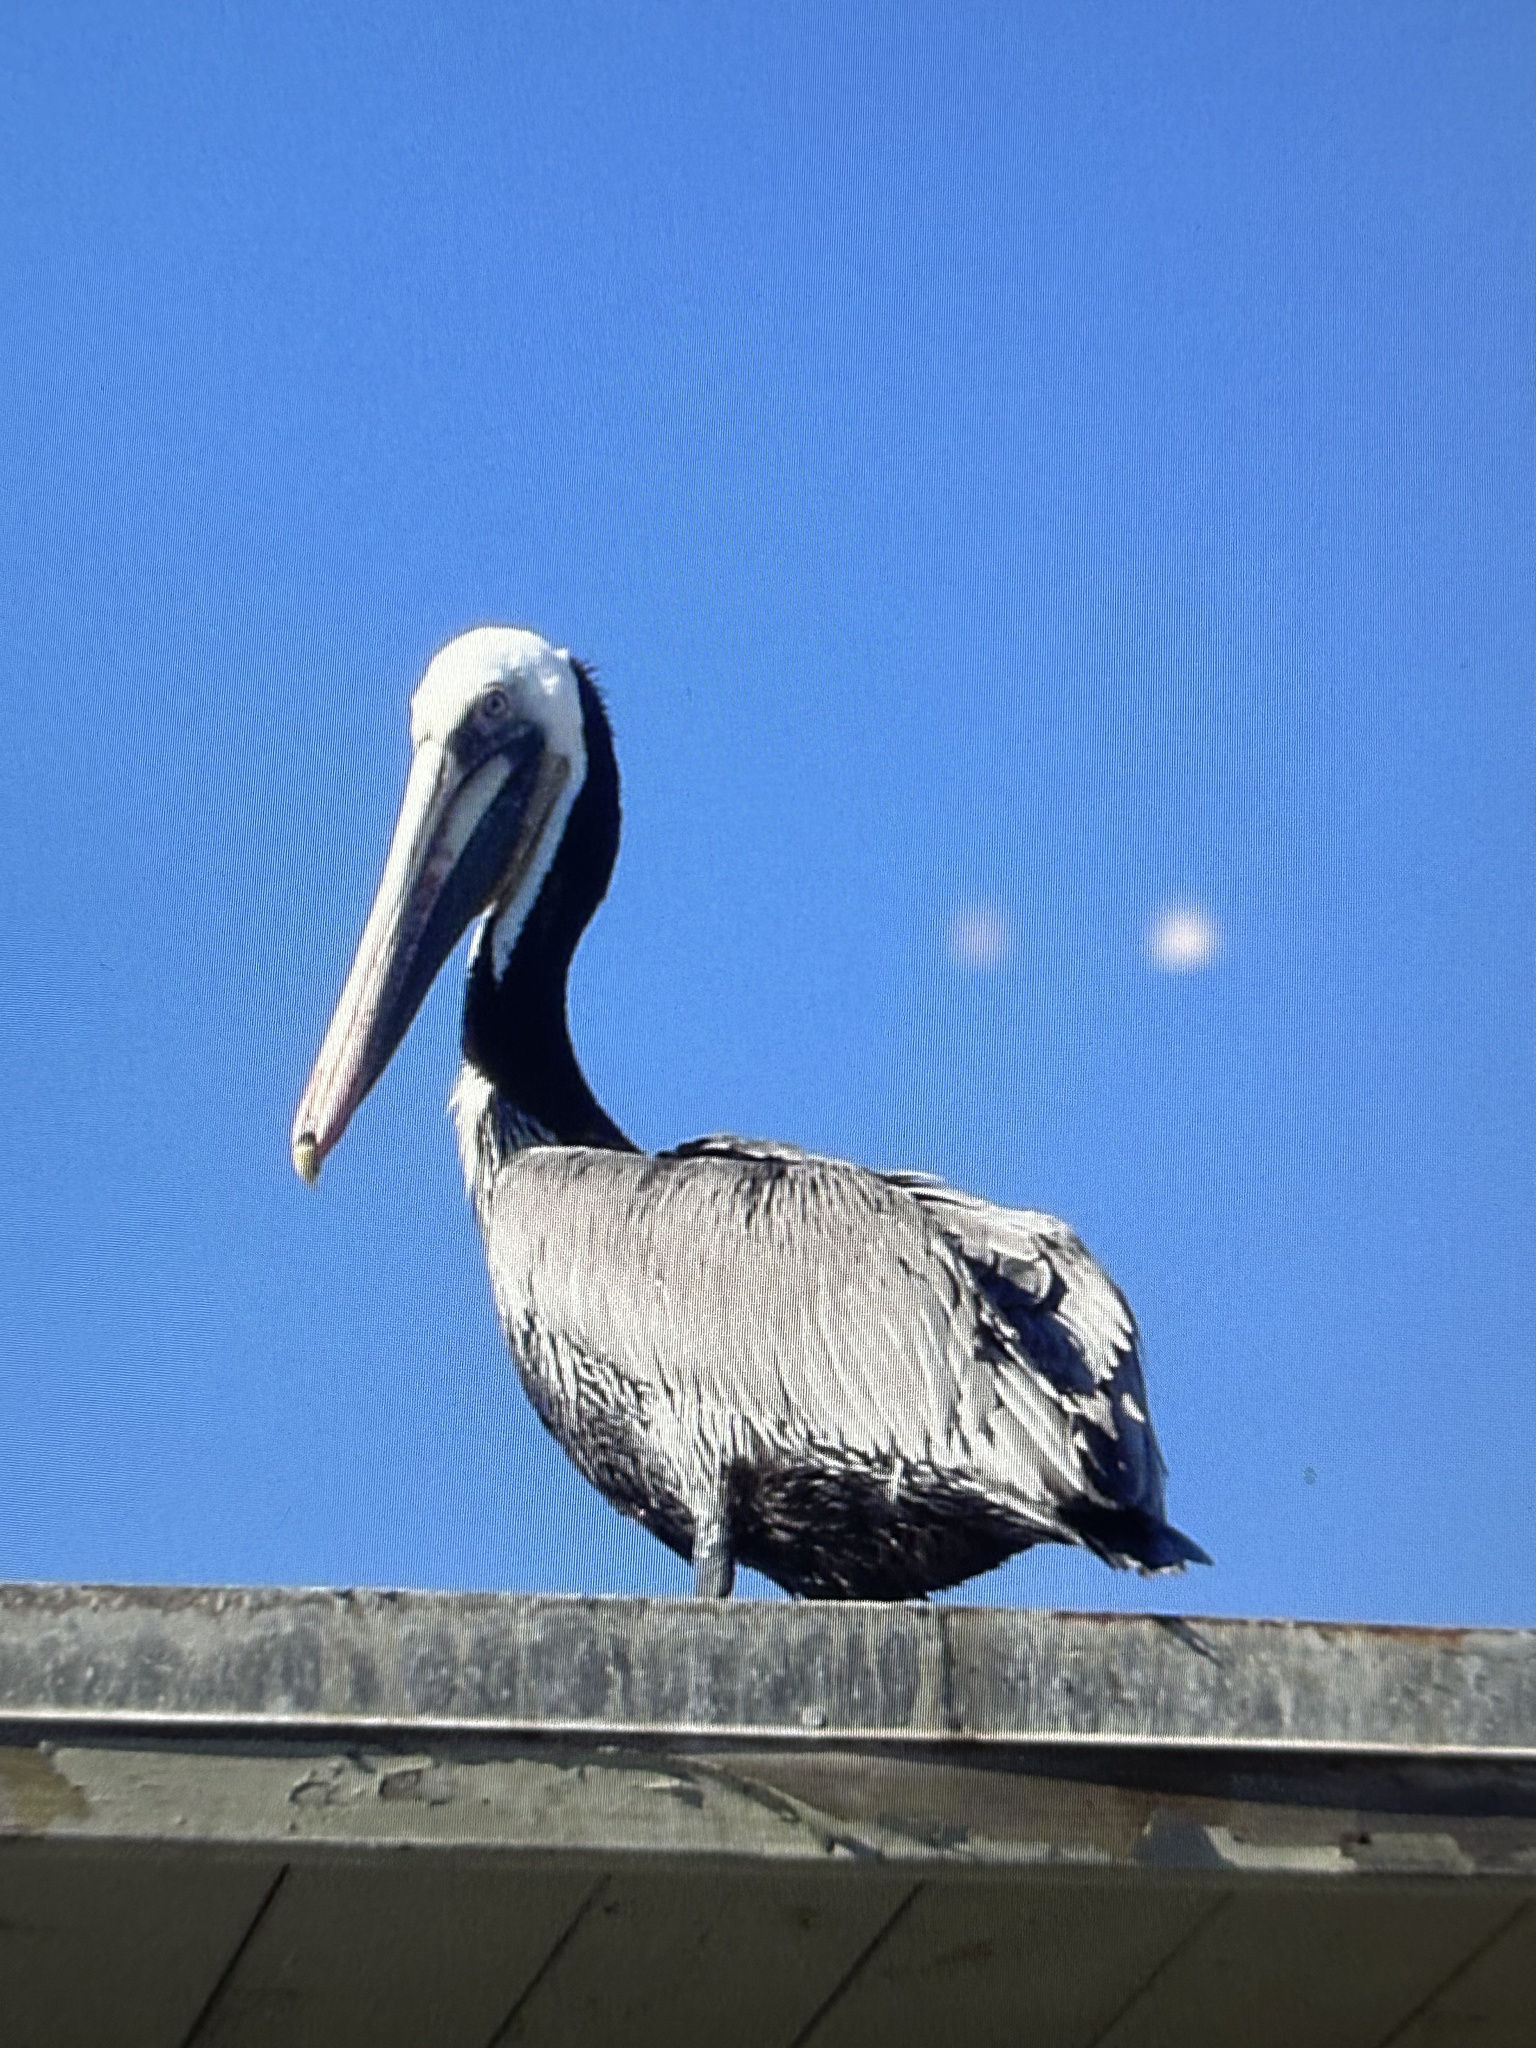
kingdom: Animalia
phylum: Chordata
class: Aves
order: Pelecaniformes
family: Pelecanidae
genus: Pelecanus
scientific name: Pelecanus occidentalis
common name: Brown pelican
